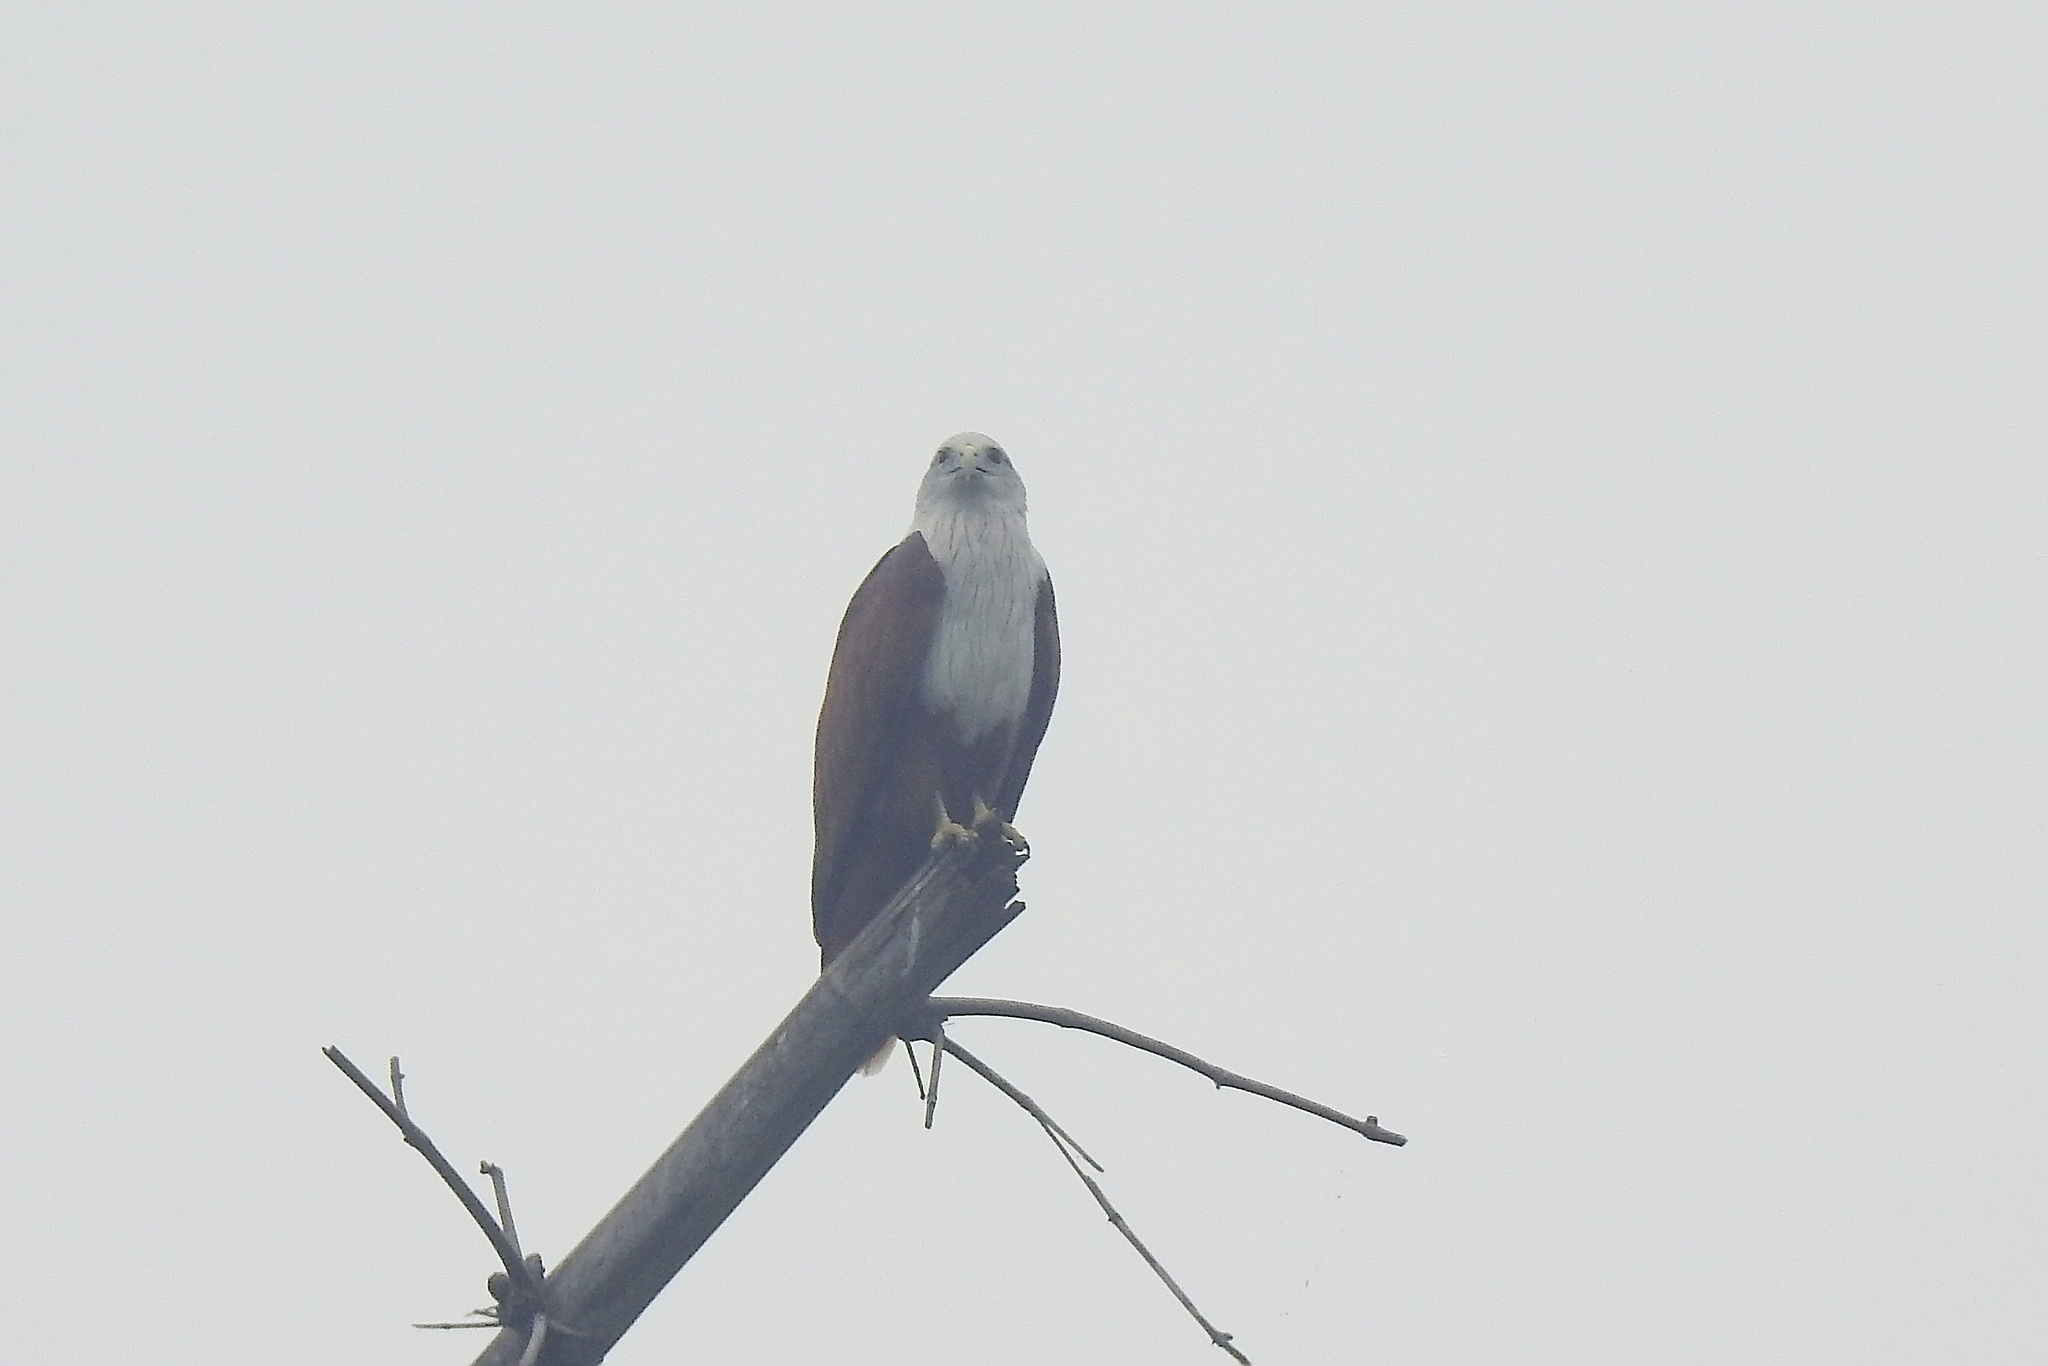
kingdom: Animalia
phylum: Chordata
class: Aves
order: Accipitriformes
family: Accipitridae
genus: Haliastur
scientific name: Haliastur indus
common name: Brahminy kite
